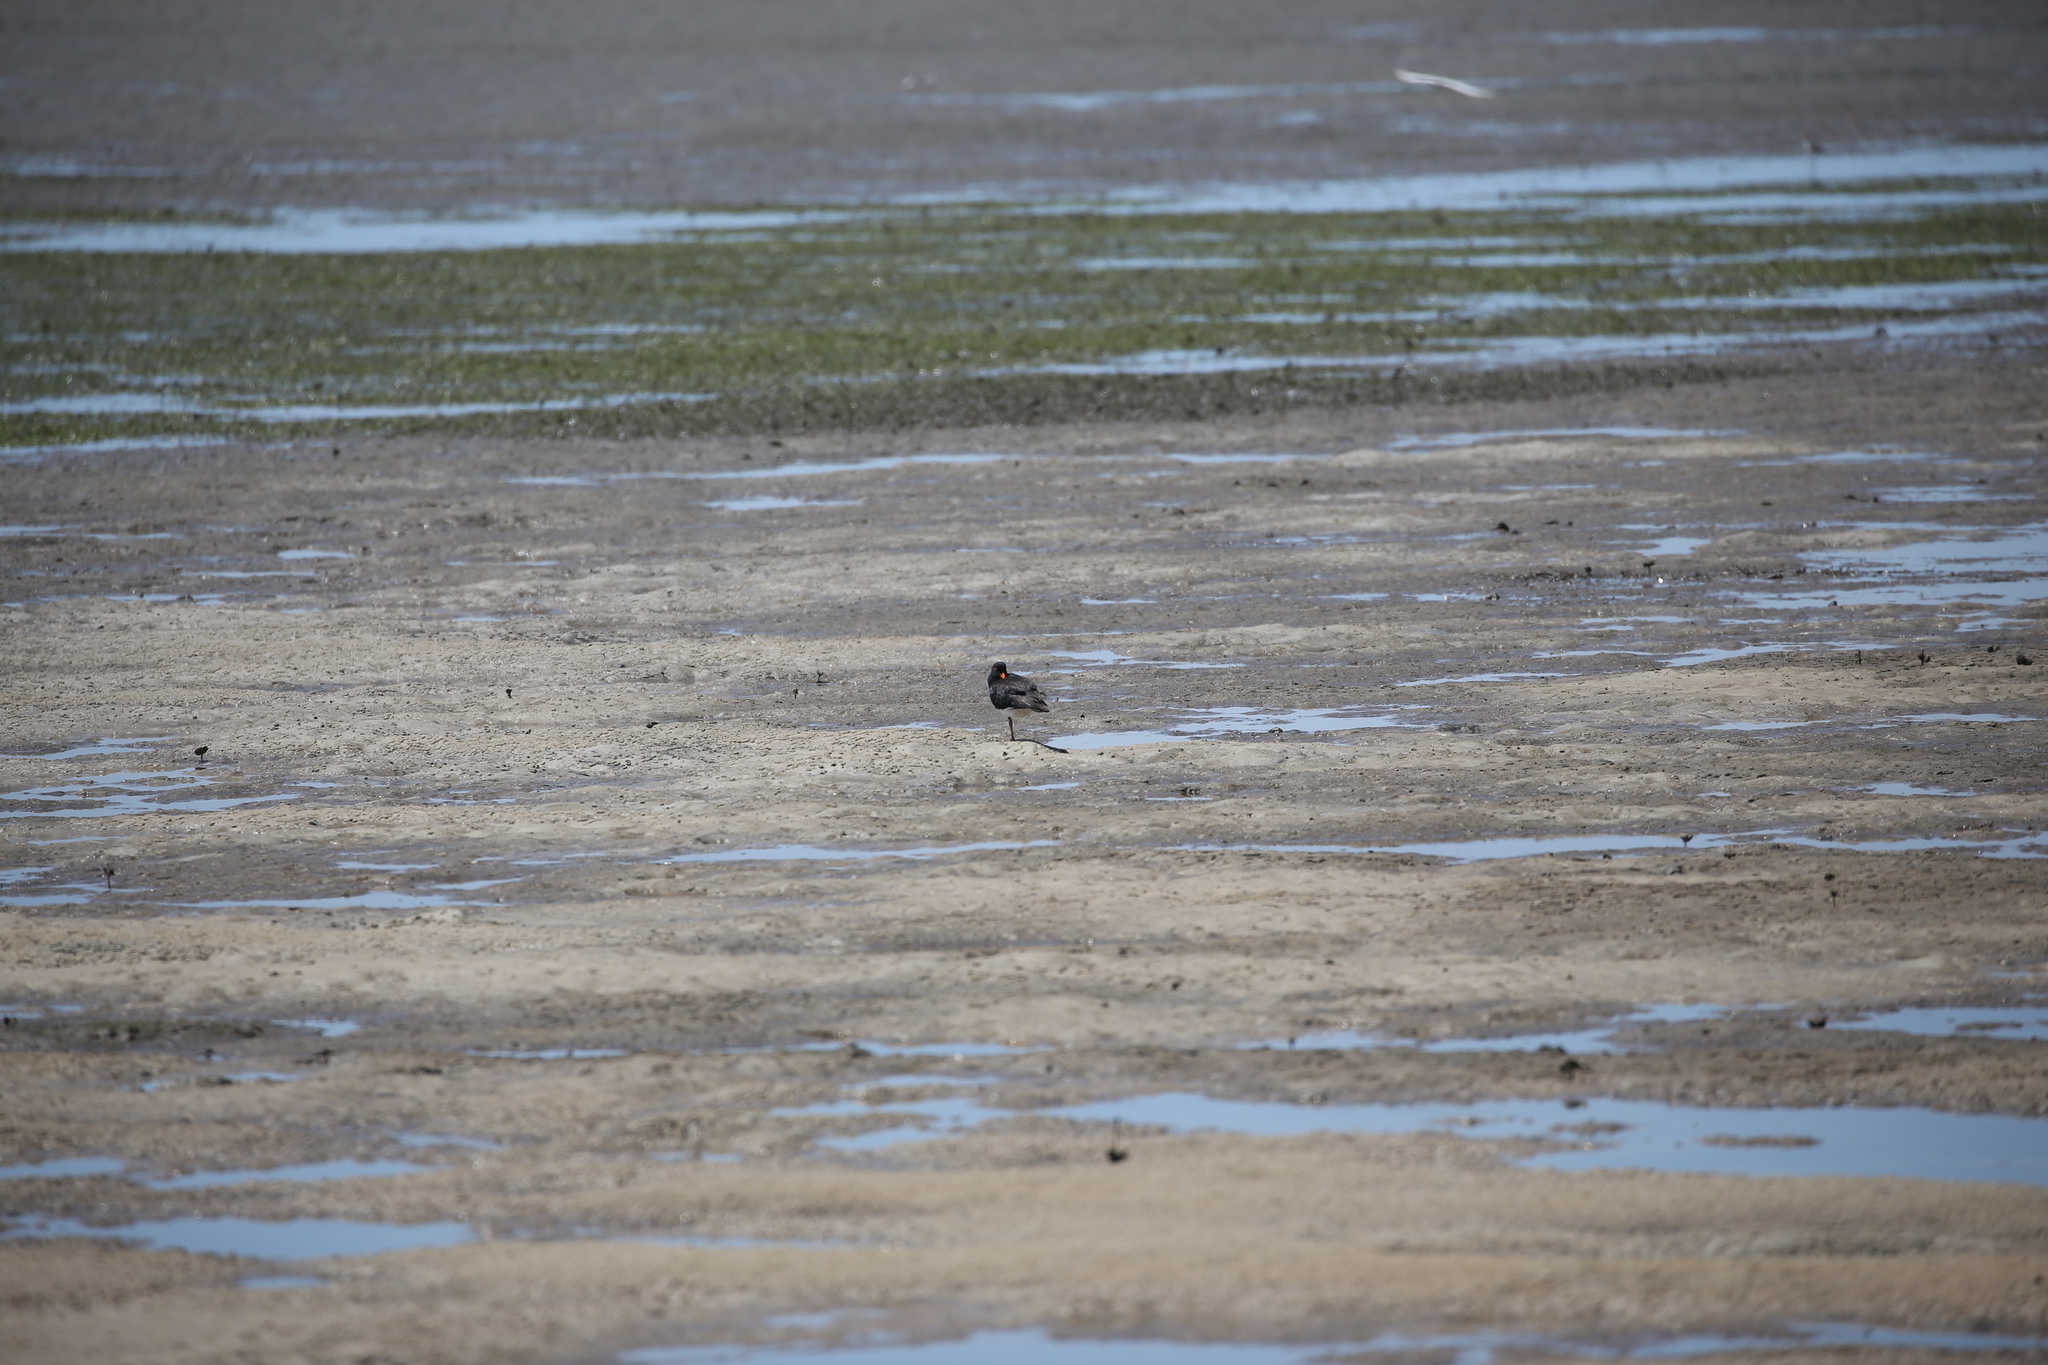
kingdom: Animalia
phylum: Chordata
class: Aves
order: Charadriiformes
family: Haematopodidae
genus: Haematopus
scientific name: Haematopus longirostris
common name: Pied oystercatcher
